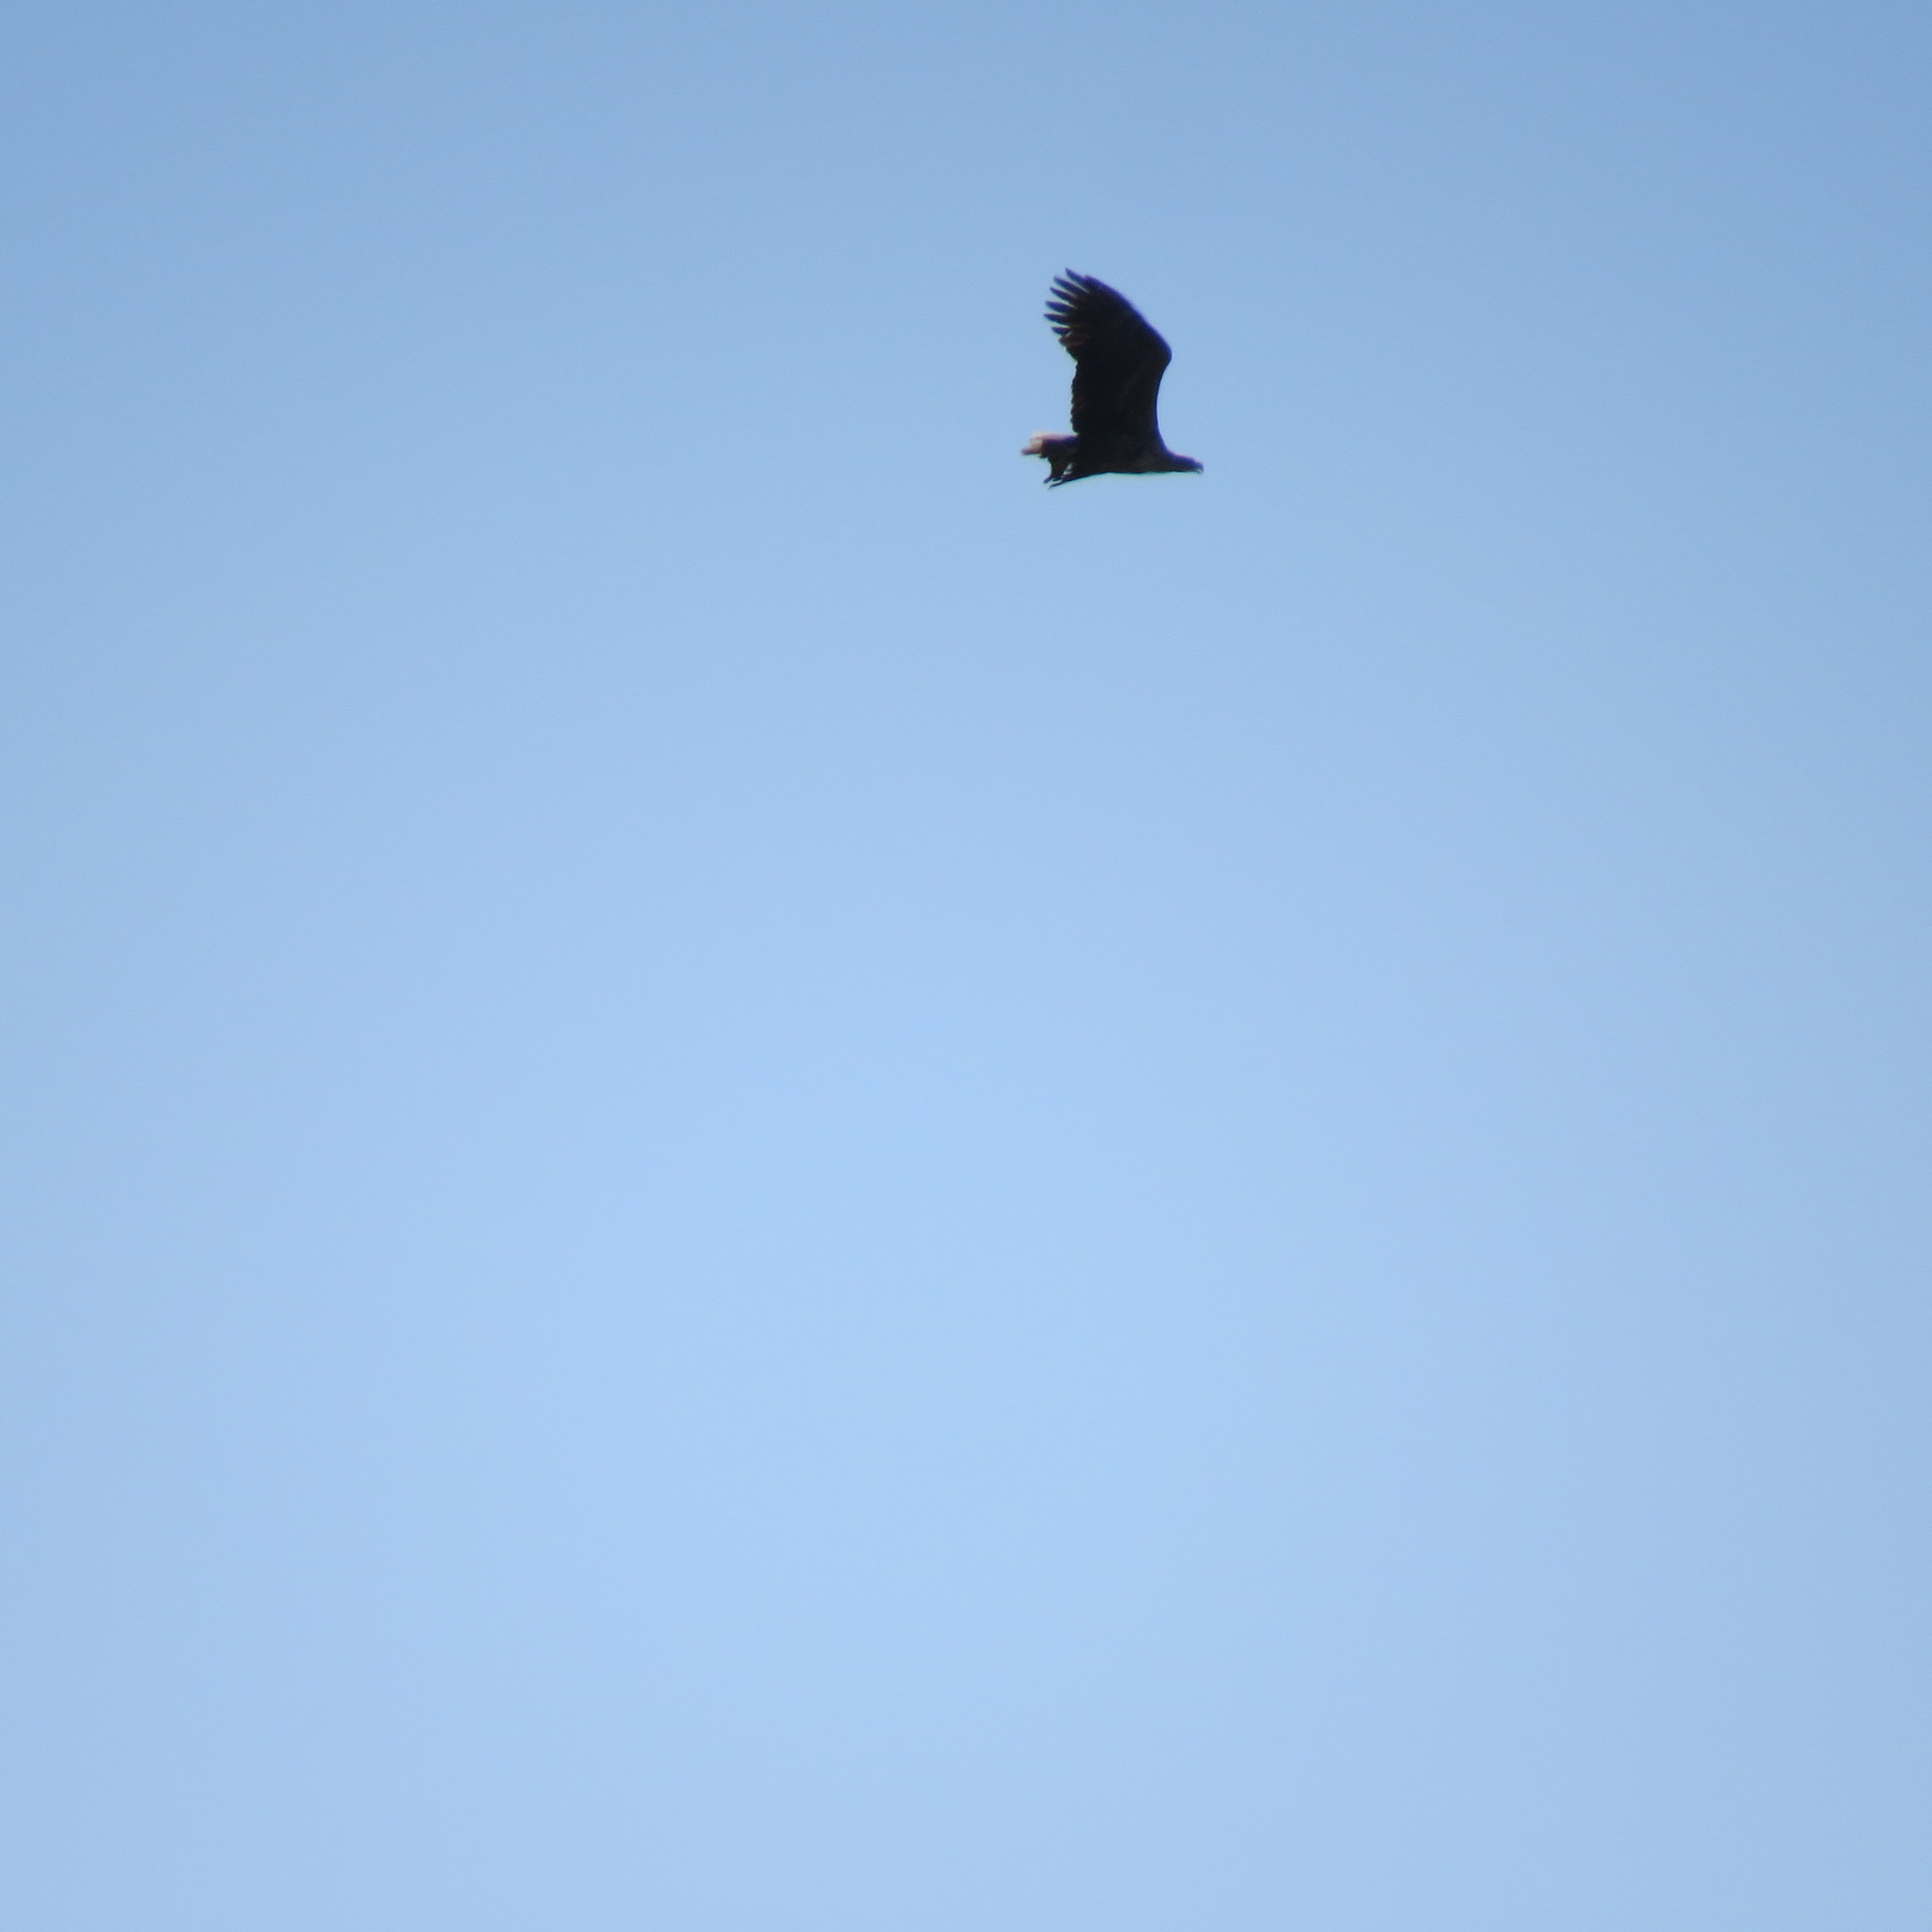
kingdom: Animalia
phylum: Chordata
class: Aves
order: Accipitriformes
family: Accipitridae
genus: Haliaeetus
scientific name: Haliaeetus albicilla
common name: White-tailed eagle
